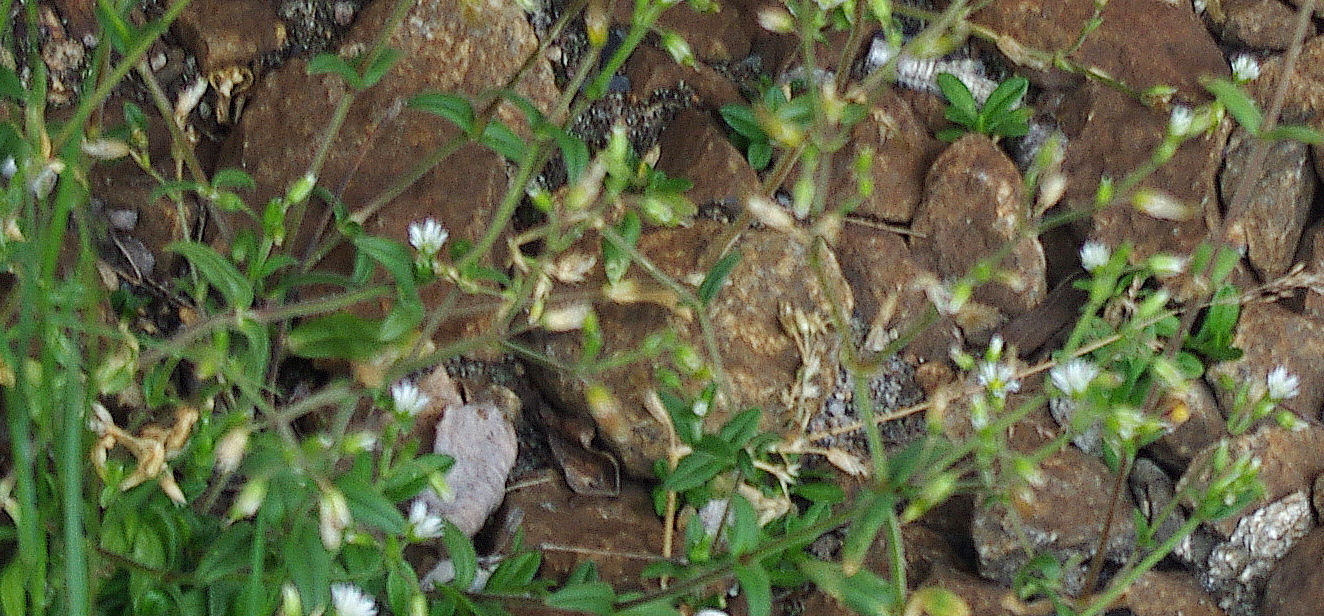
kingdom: Plantae
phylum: Tracheophyta
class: Magnoliopsida
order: Caryophyllales
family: Caryophyllaceae
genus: Cerastium
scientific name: Cerastium holosteoides
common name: Big chickweed
